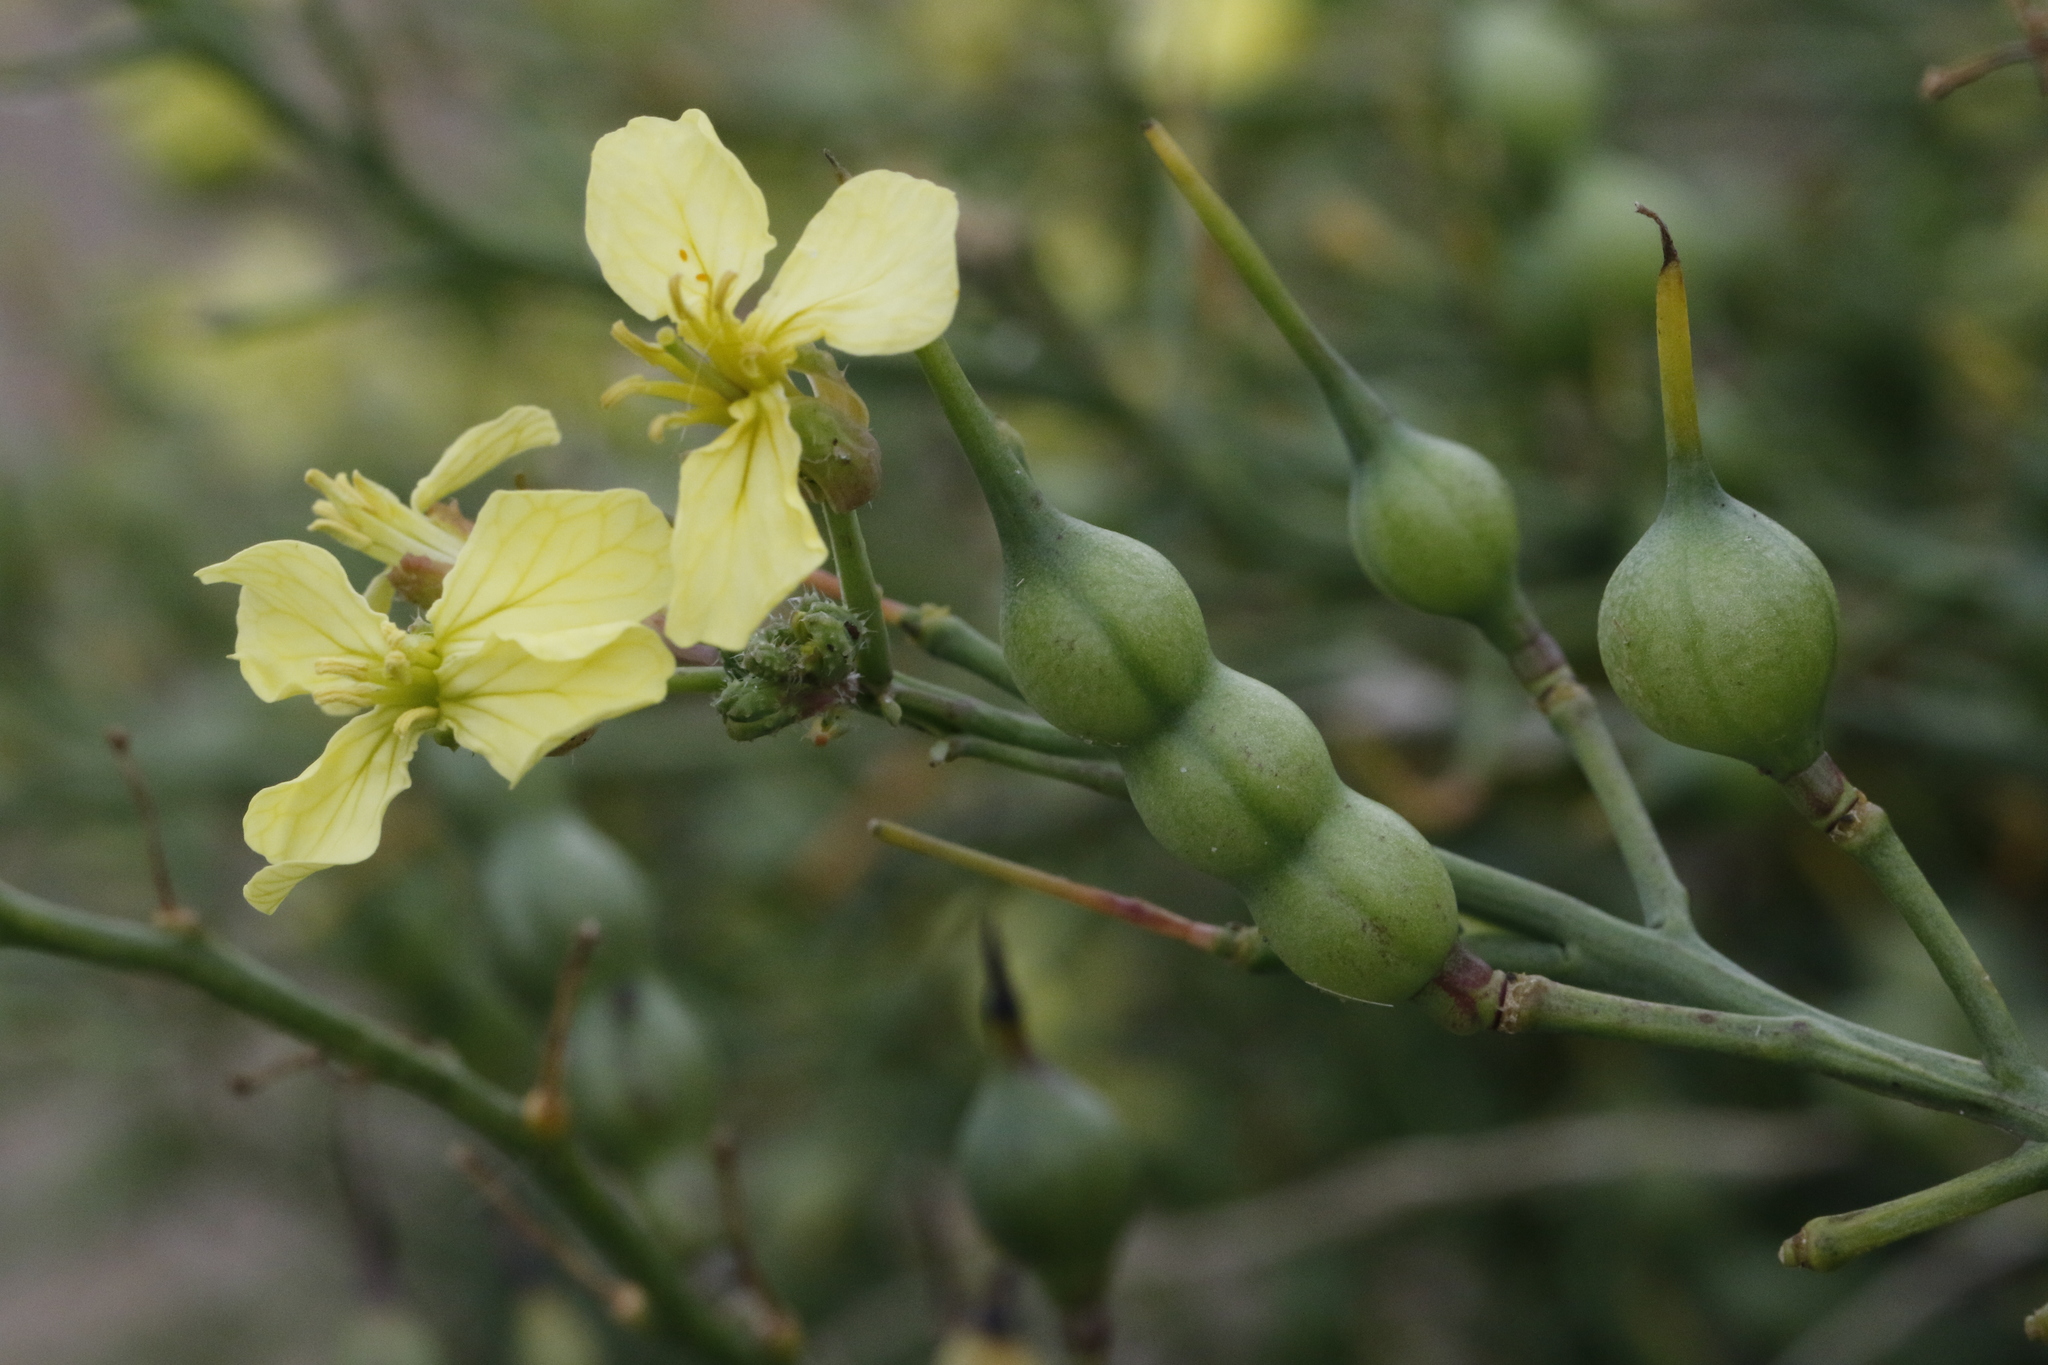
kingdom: Plantae
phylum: Tracheophyta
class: Magnoliopsida
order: Brassicales
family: Brassicaceae
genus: Raphanus
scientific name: Raphanus raphanistrum
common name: Wild radish
